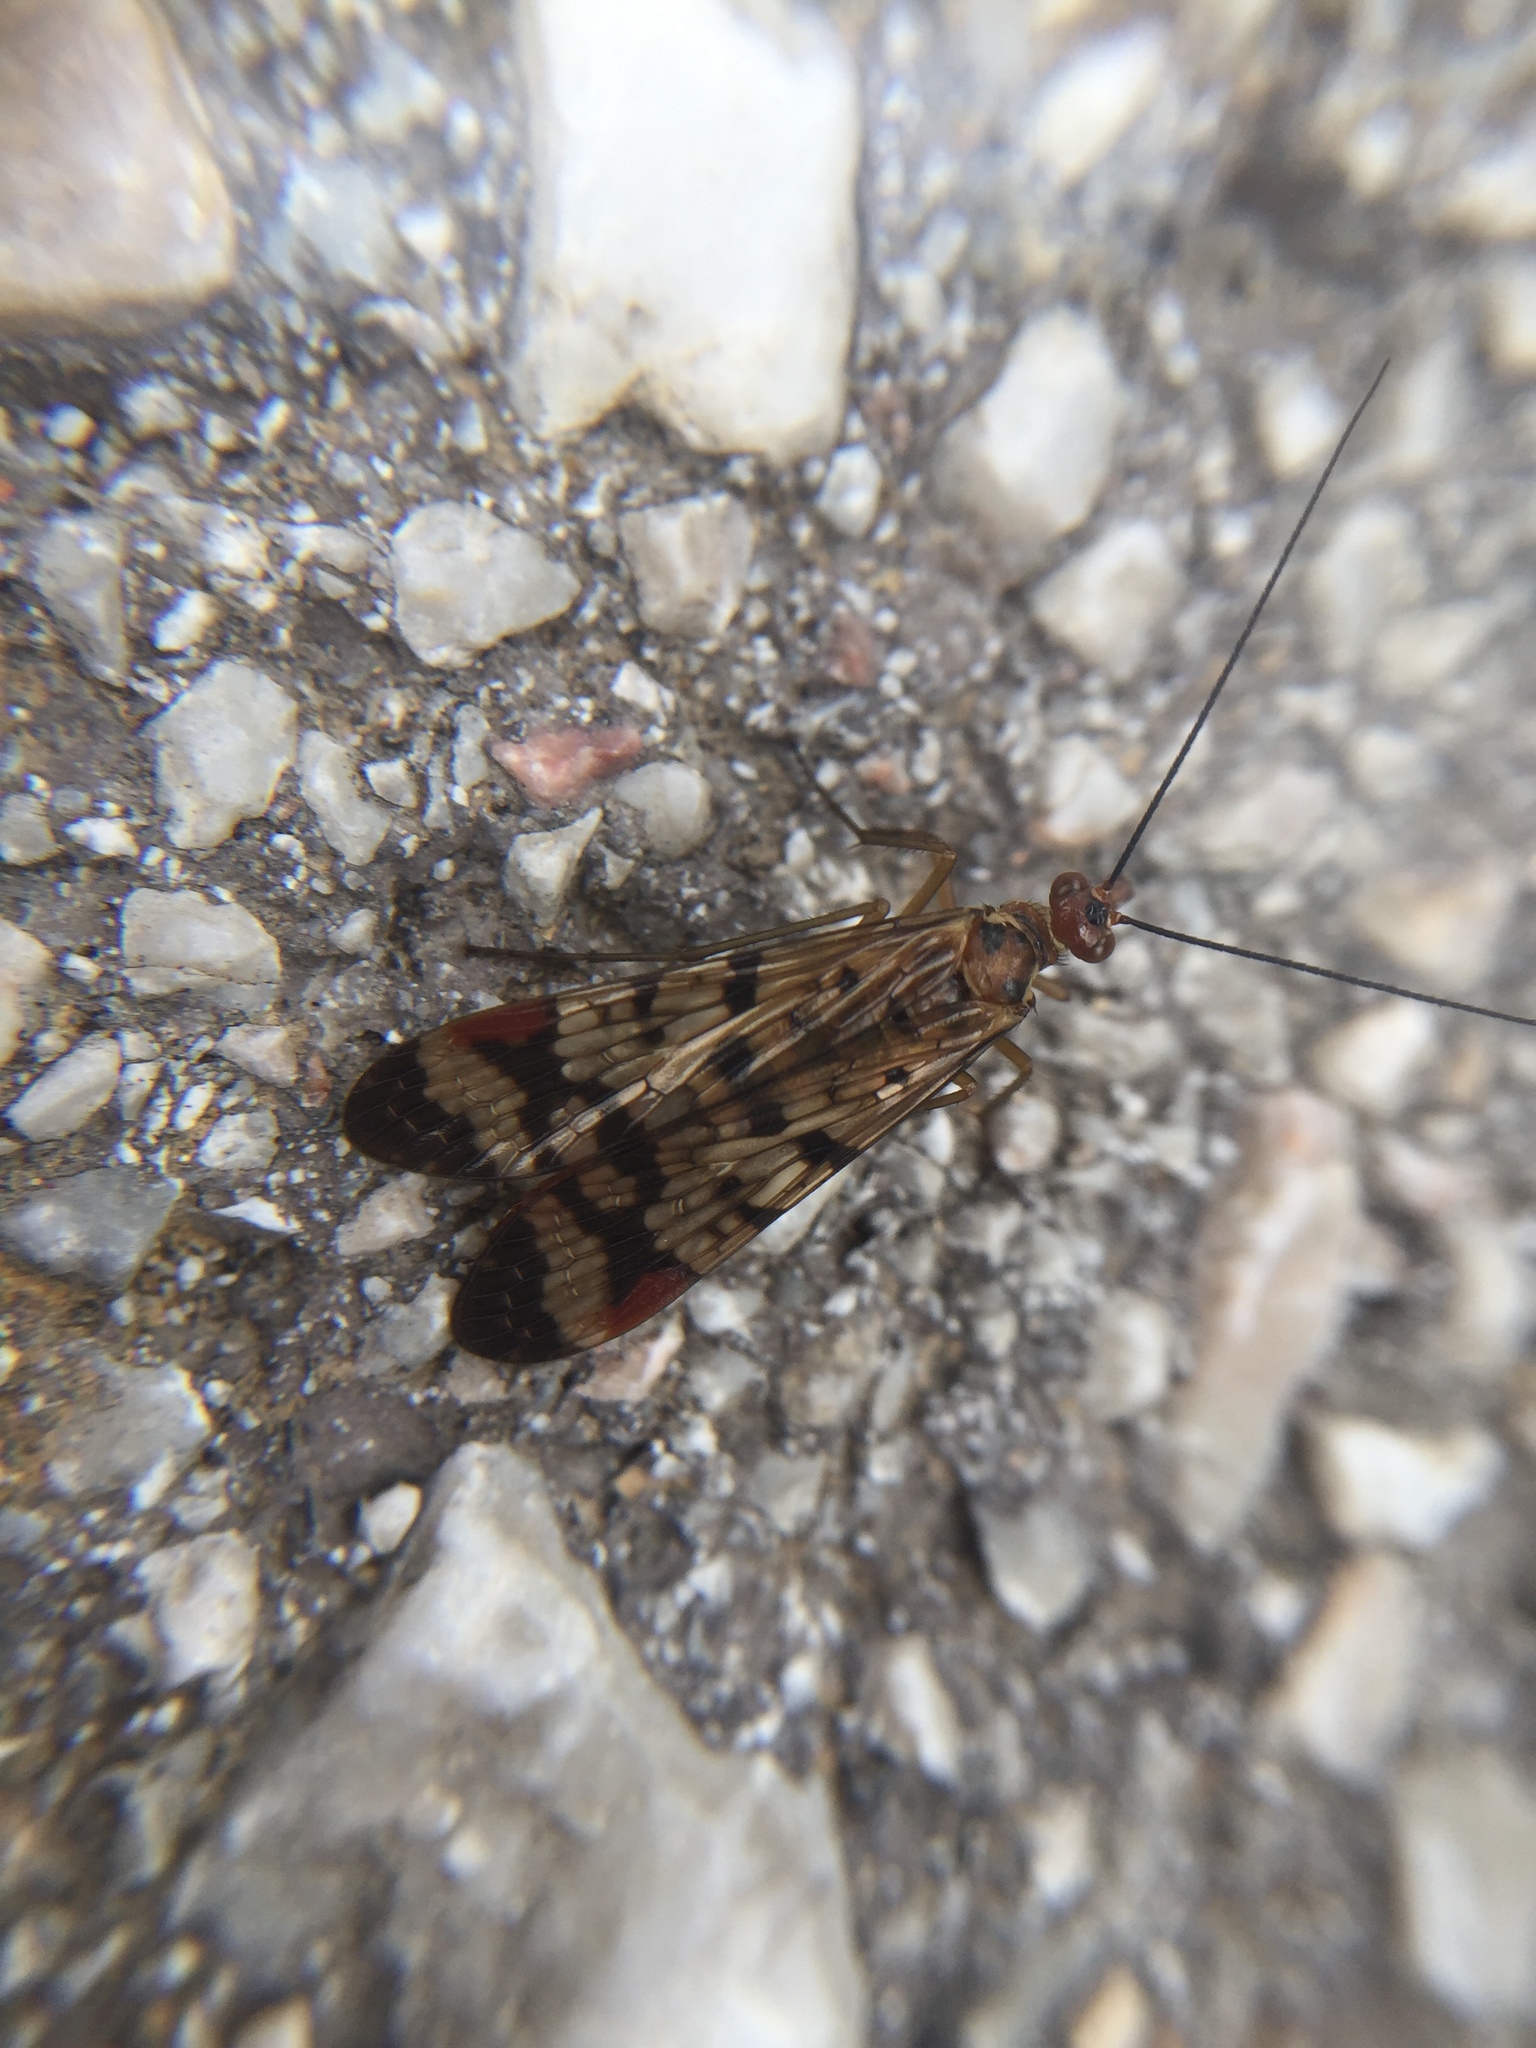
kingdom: Animalia
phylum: Arthropoda
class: Insecta
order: Mecoptera
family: Panorpidae
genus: Panorpa
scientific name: Panorpa rufostigma
